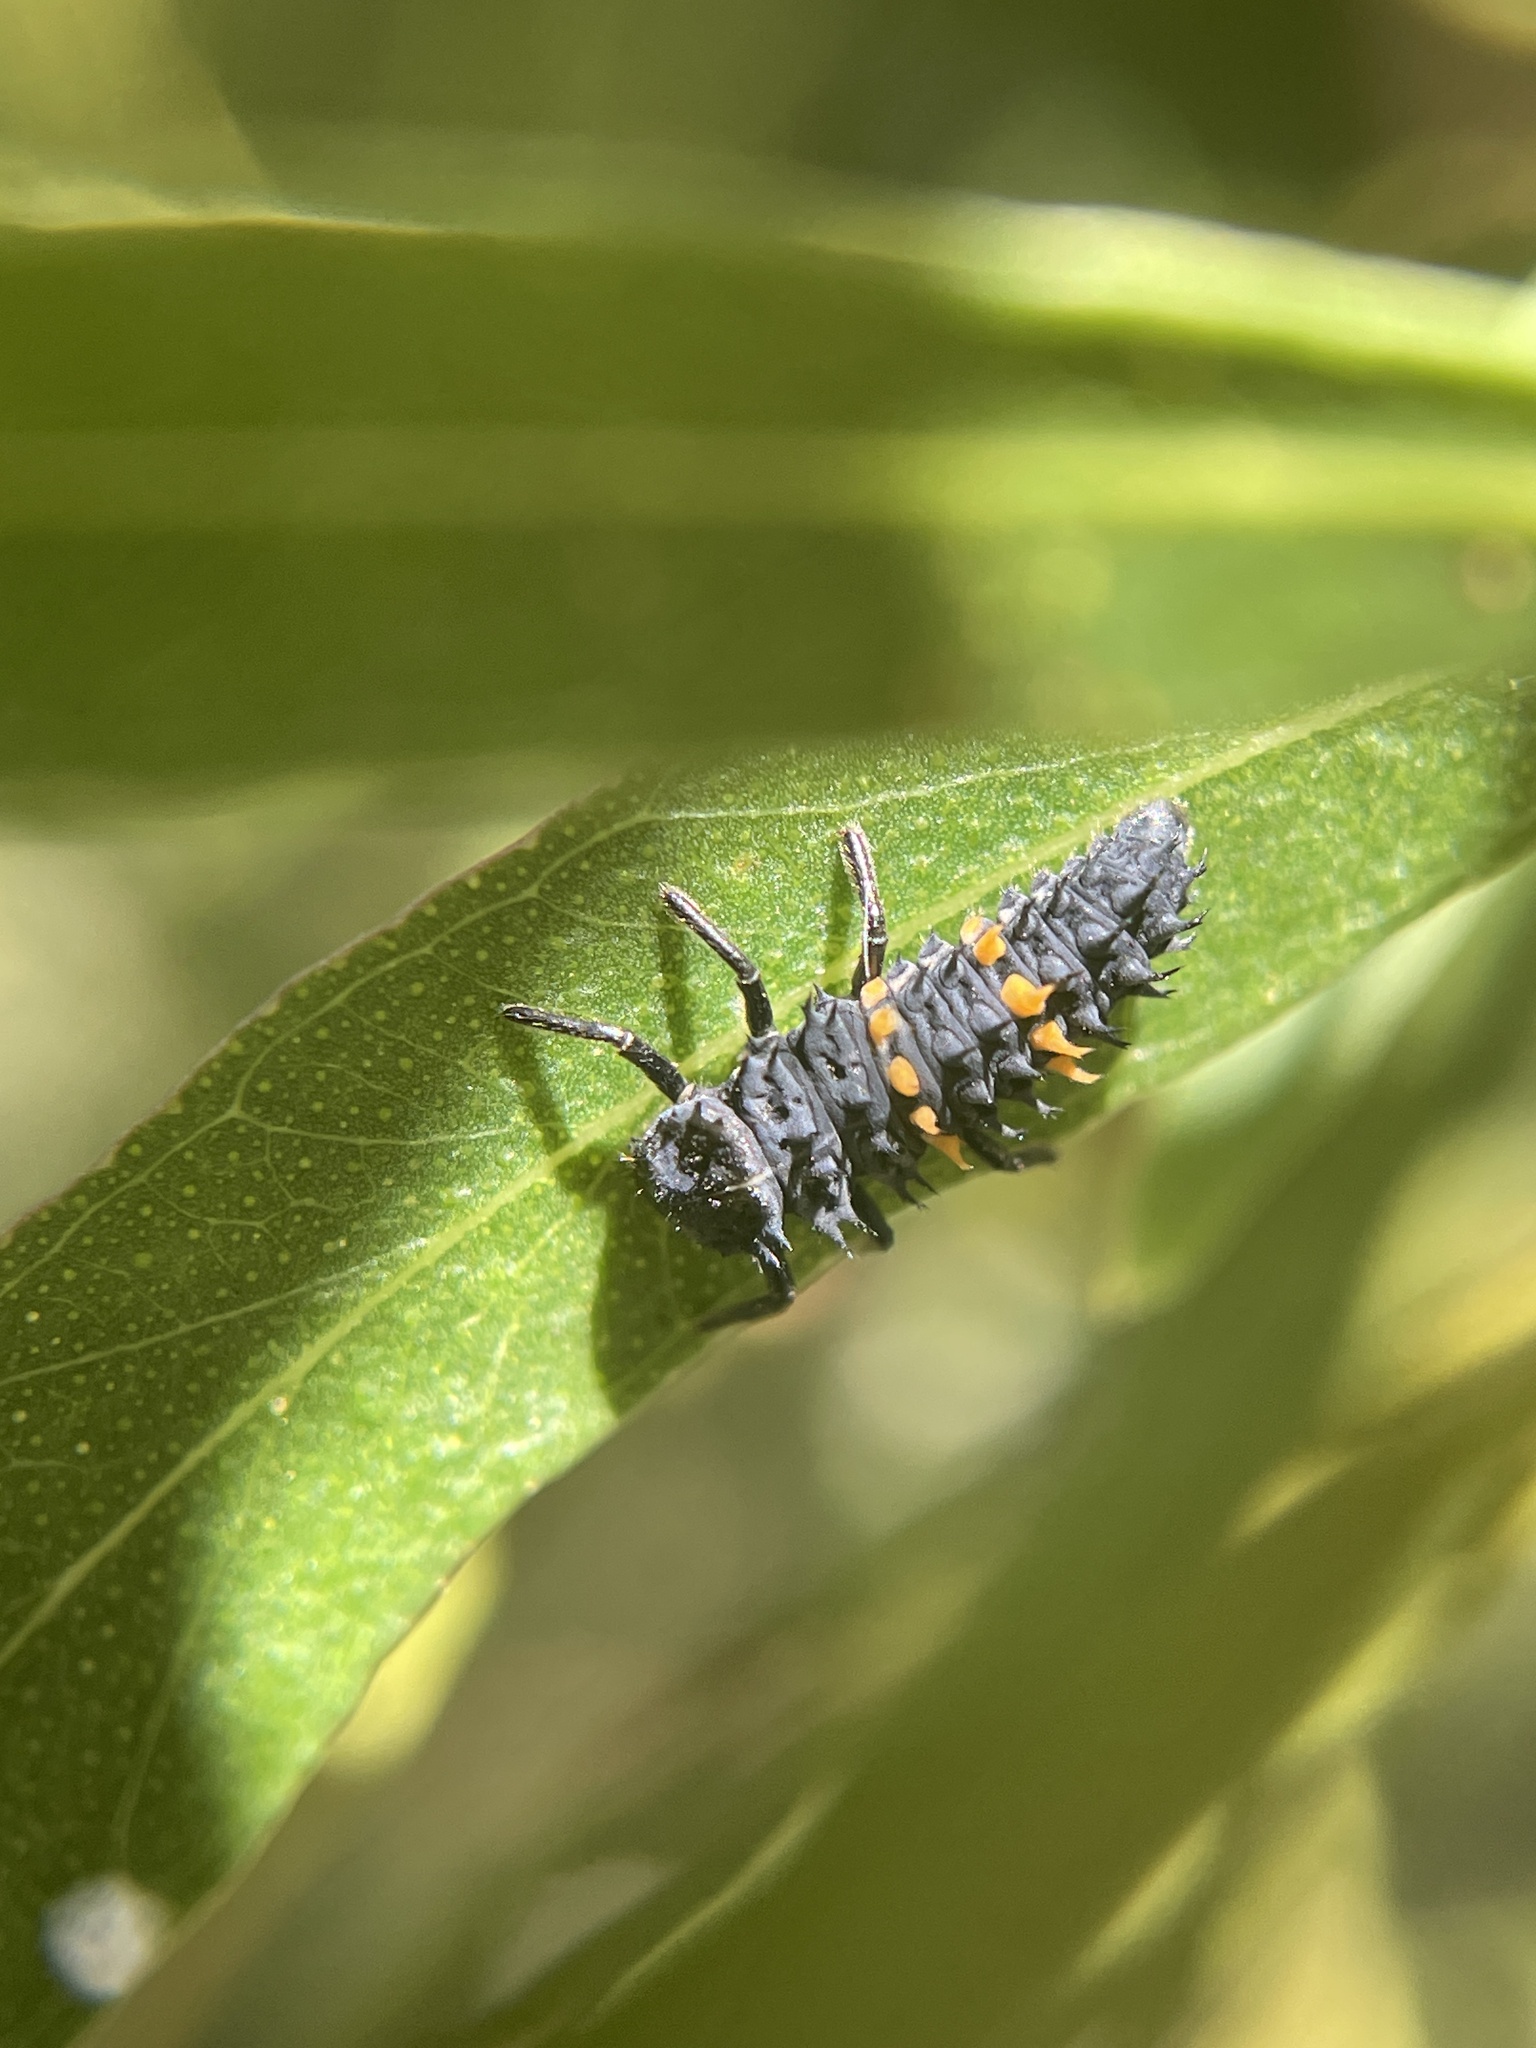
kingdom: Animalia
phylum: Arthropoda
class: Insecta
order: Coleoptera
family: Coccinellidae
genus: Harmonia
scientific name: Harmonia conformis
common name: Common spotted ladybird beetle
